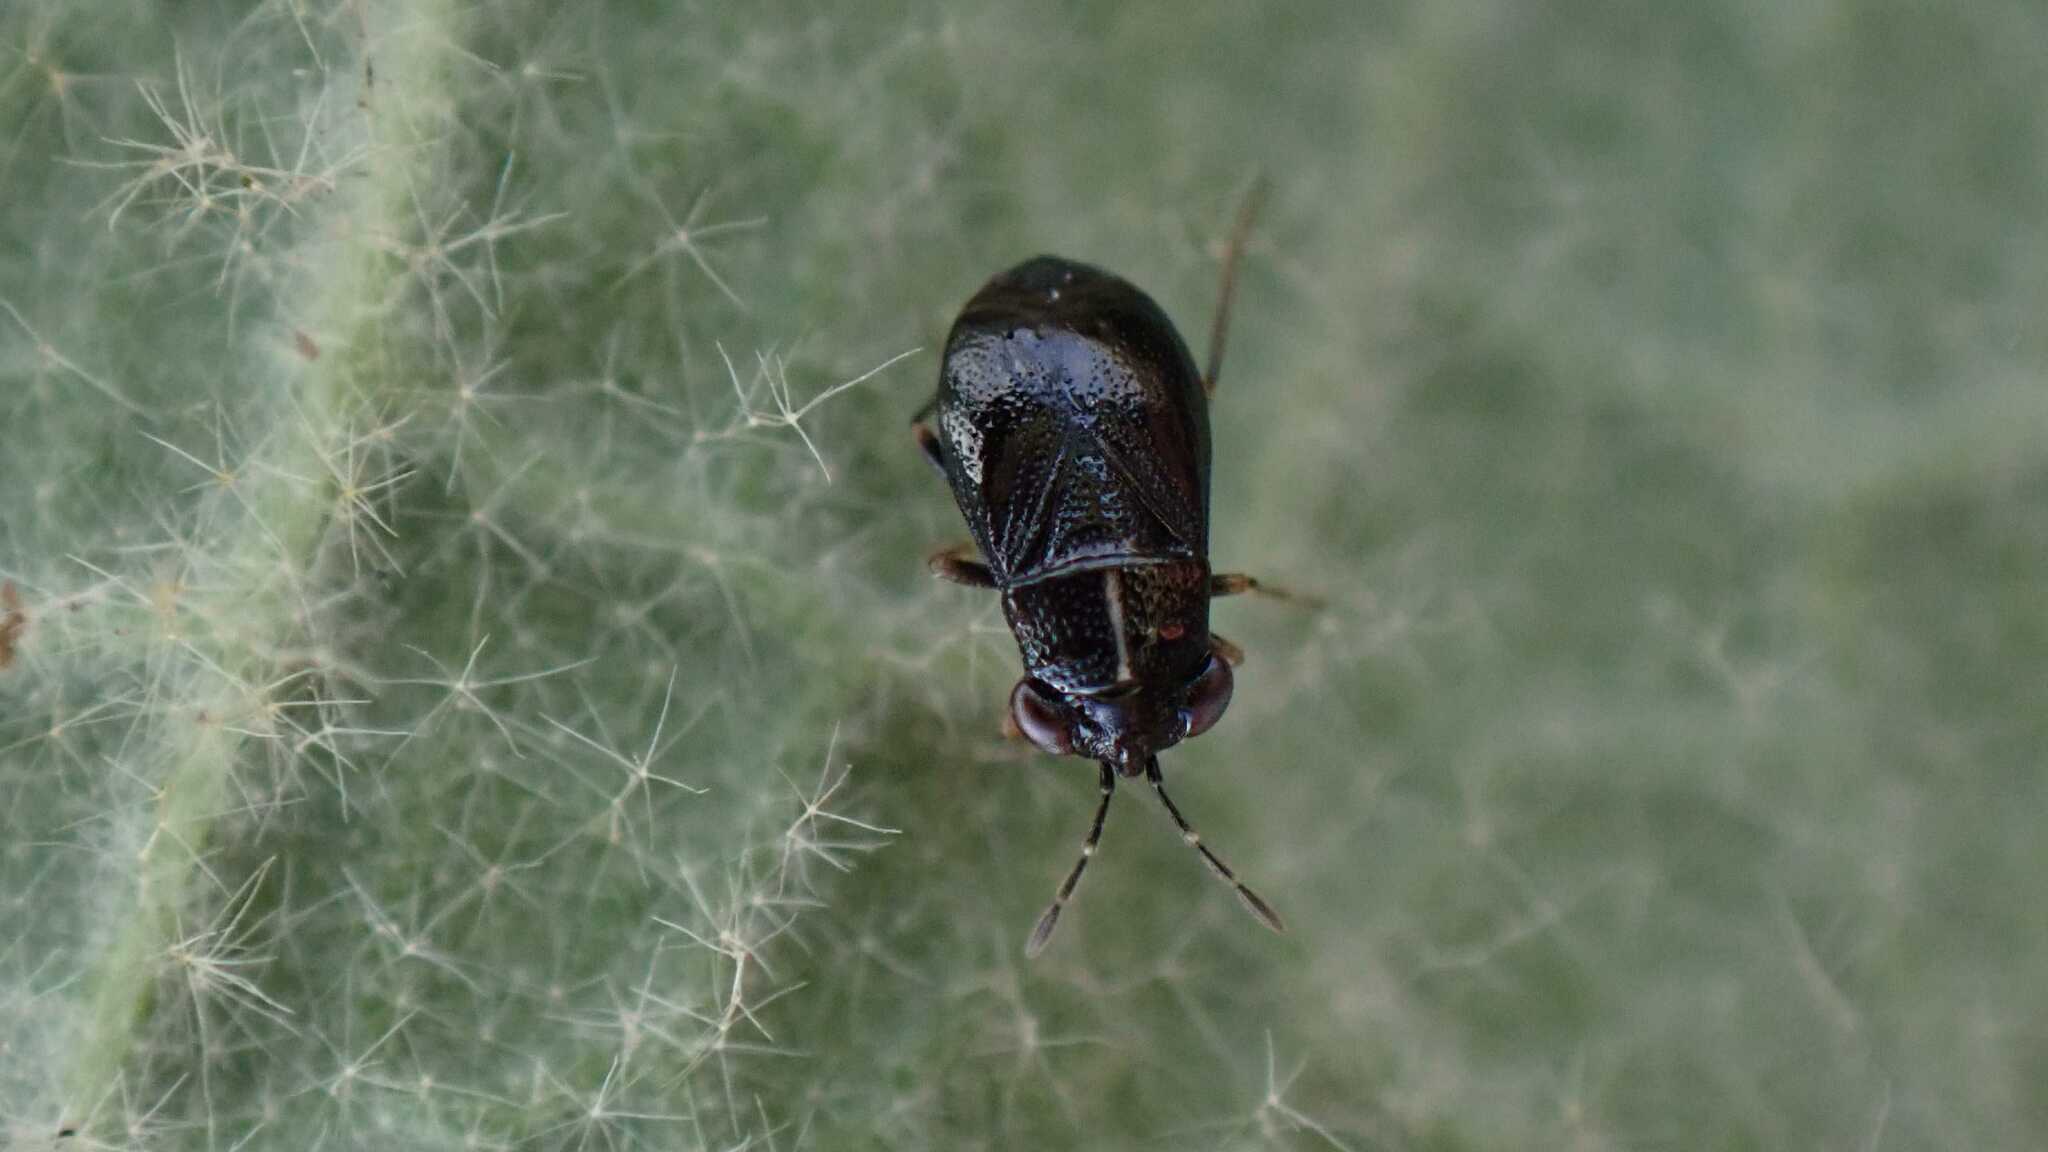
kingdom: Animalia
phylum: Arthropoda
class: Insecta
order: Hemiptera
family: Geocoridae
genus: Geocoris
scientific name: Geocoris ater
